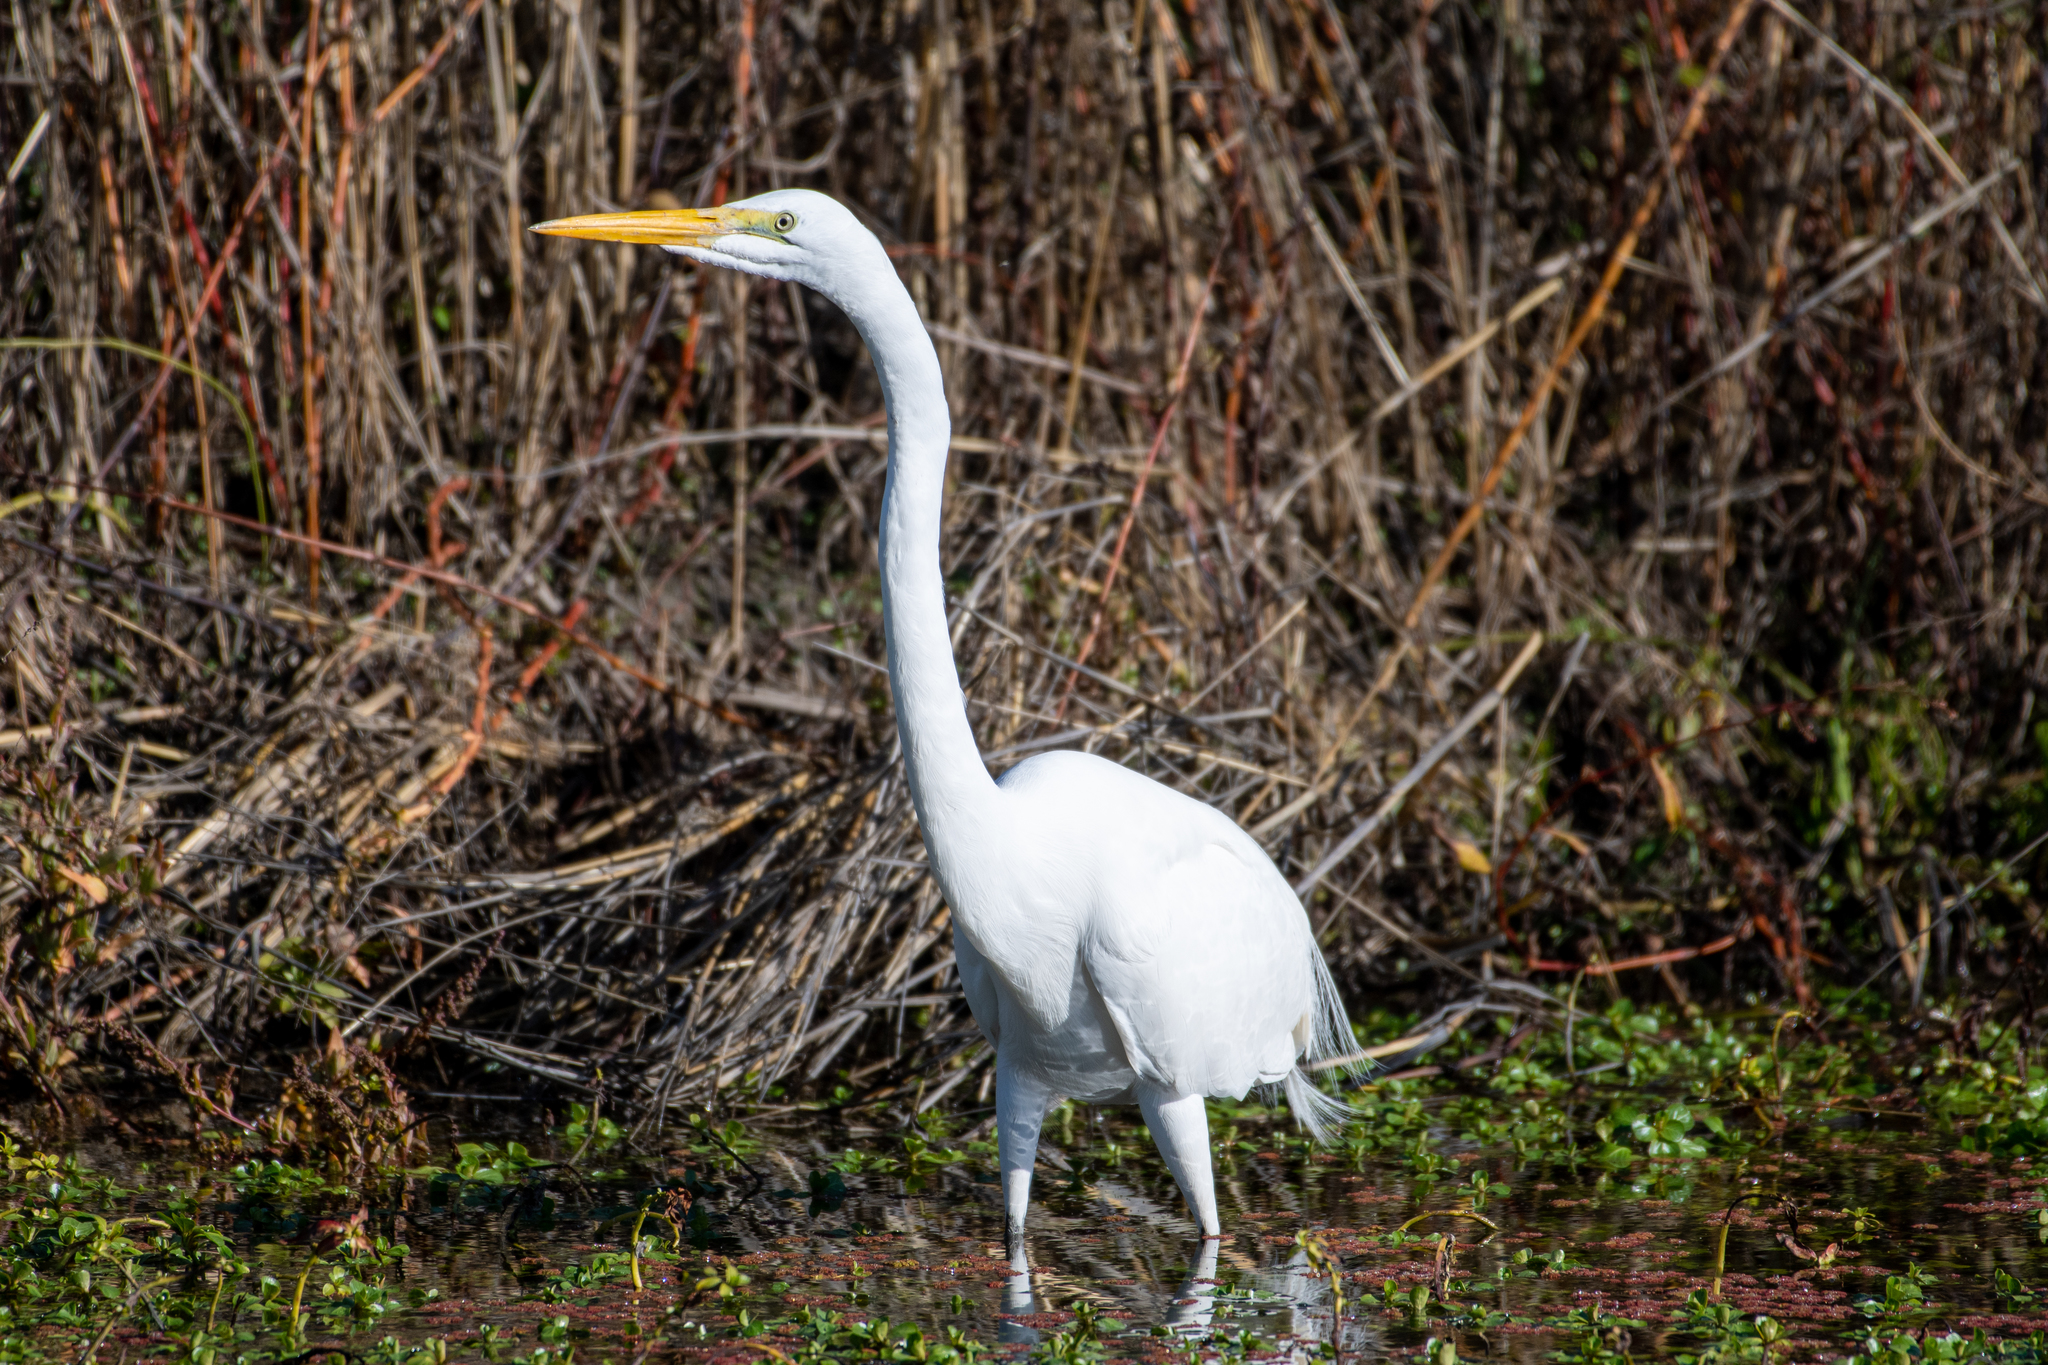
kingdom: Animalia
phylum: Chordata
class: Aves
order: Pelecaniformes
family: Ardeidae
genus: Ardea
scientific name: Ardea alba
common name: Great egret
